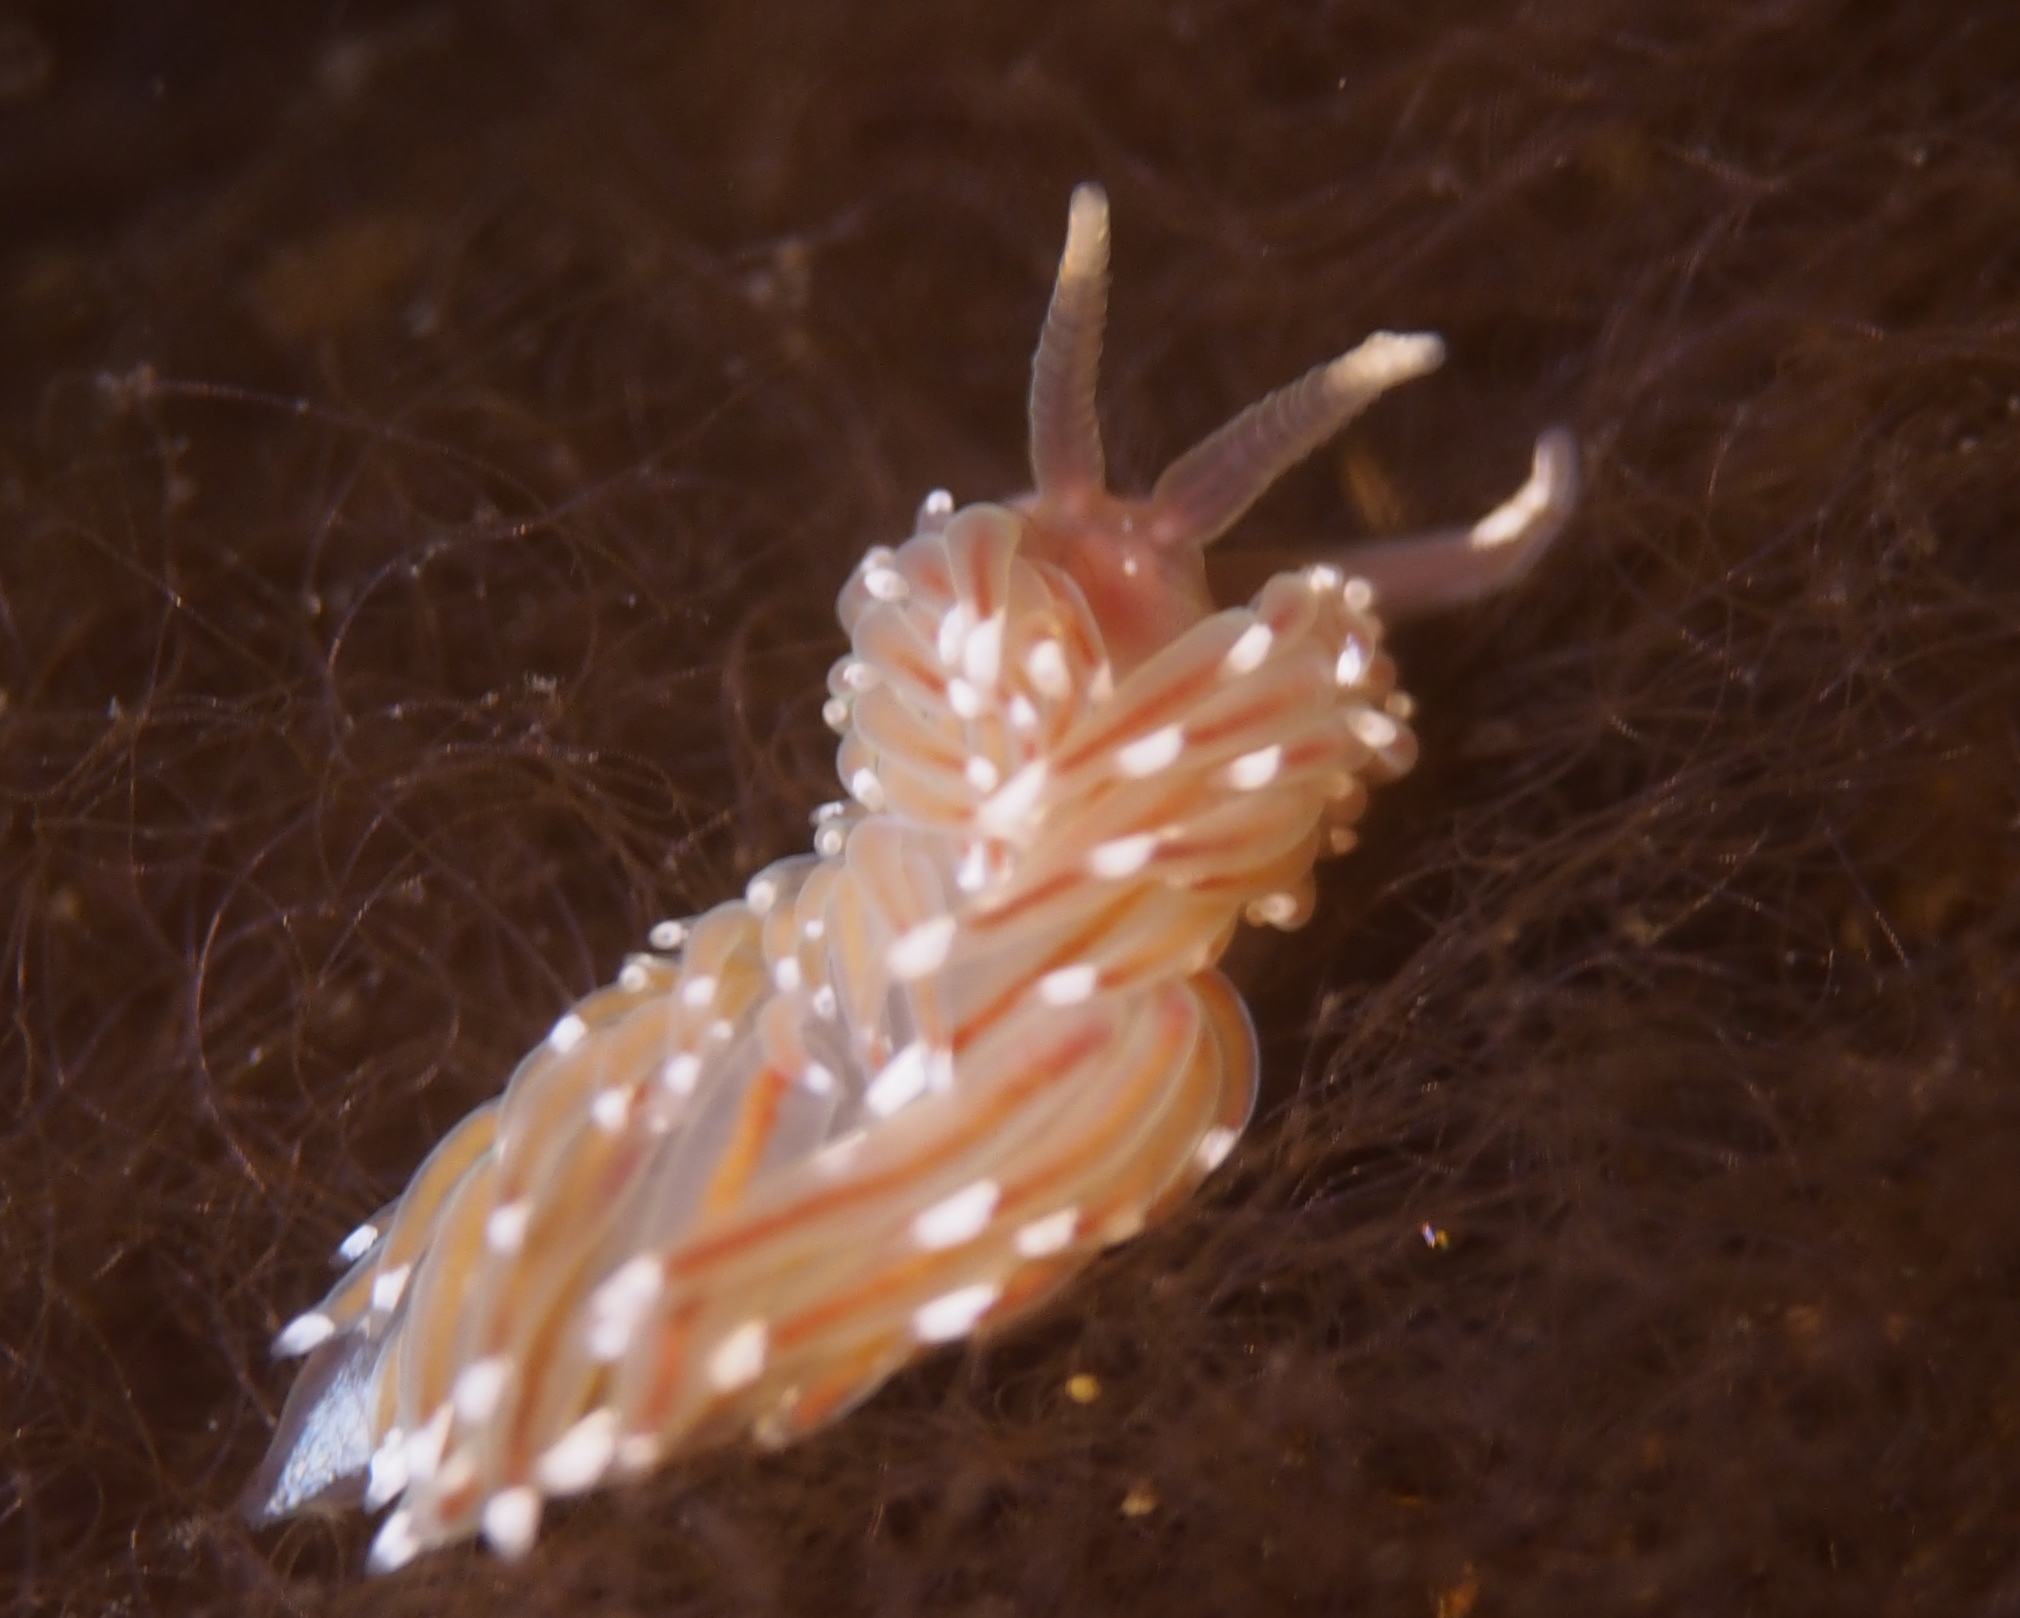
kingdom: Animalia
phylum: Mollusca
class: Gastropoda
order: Nudibranchia
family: Facelinidae
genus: Facelina
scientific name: Facelina bostoniensis
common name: Boston facelina
